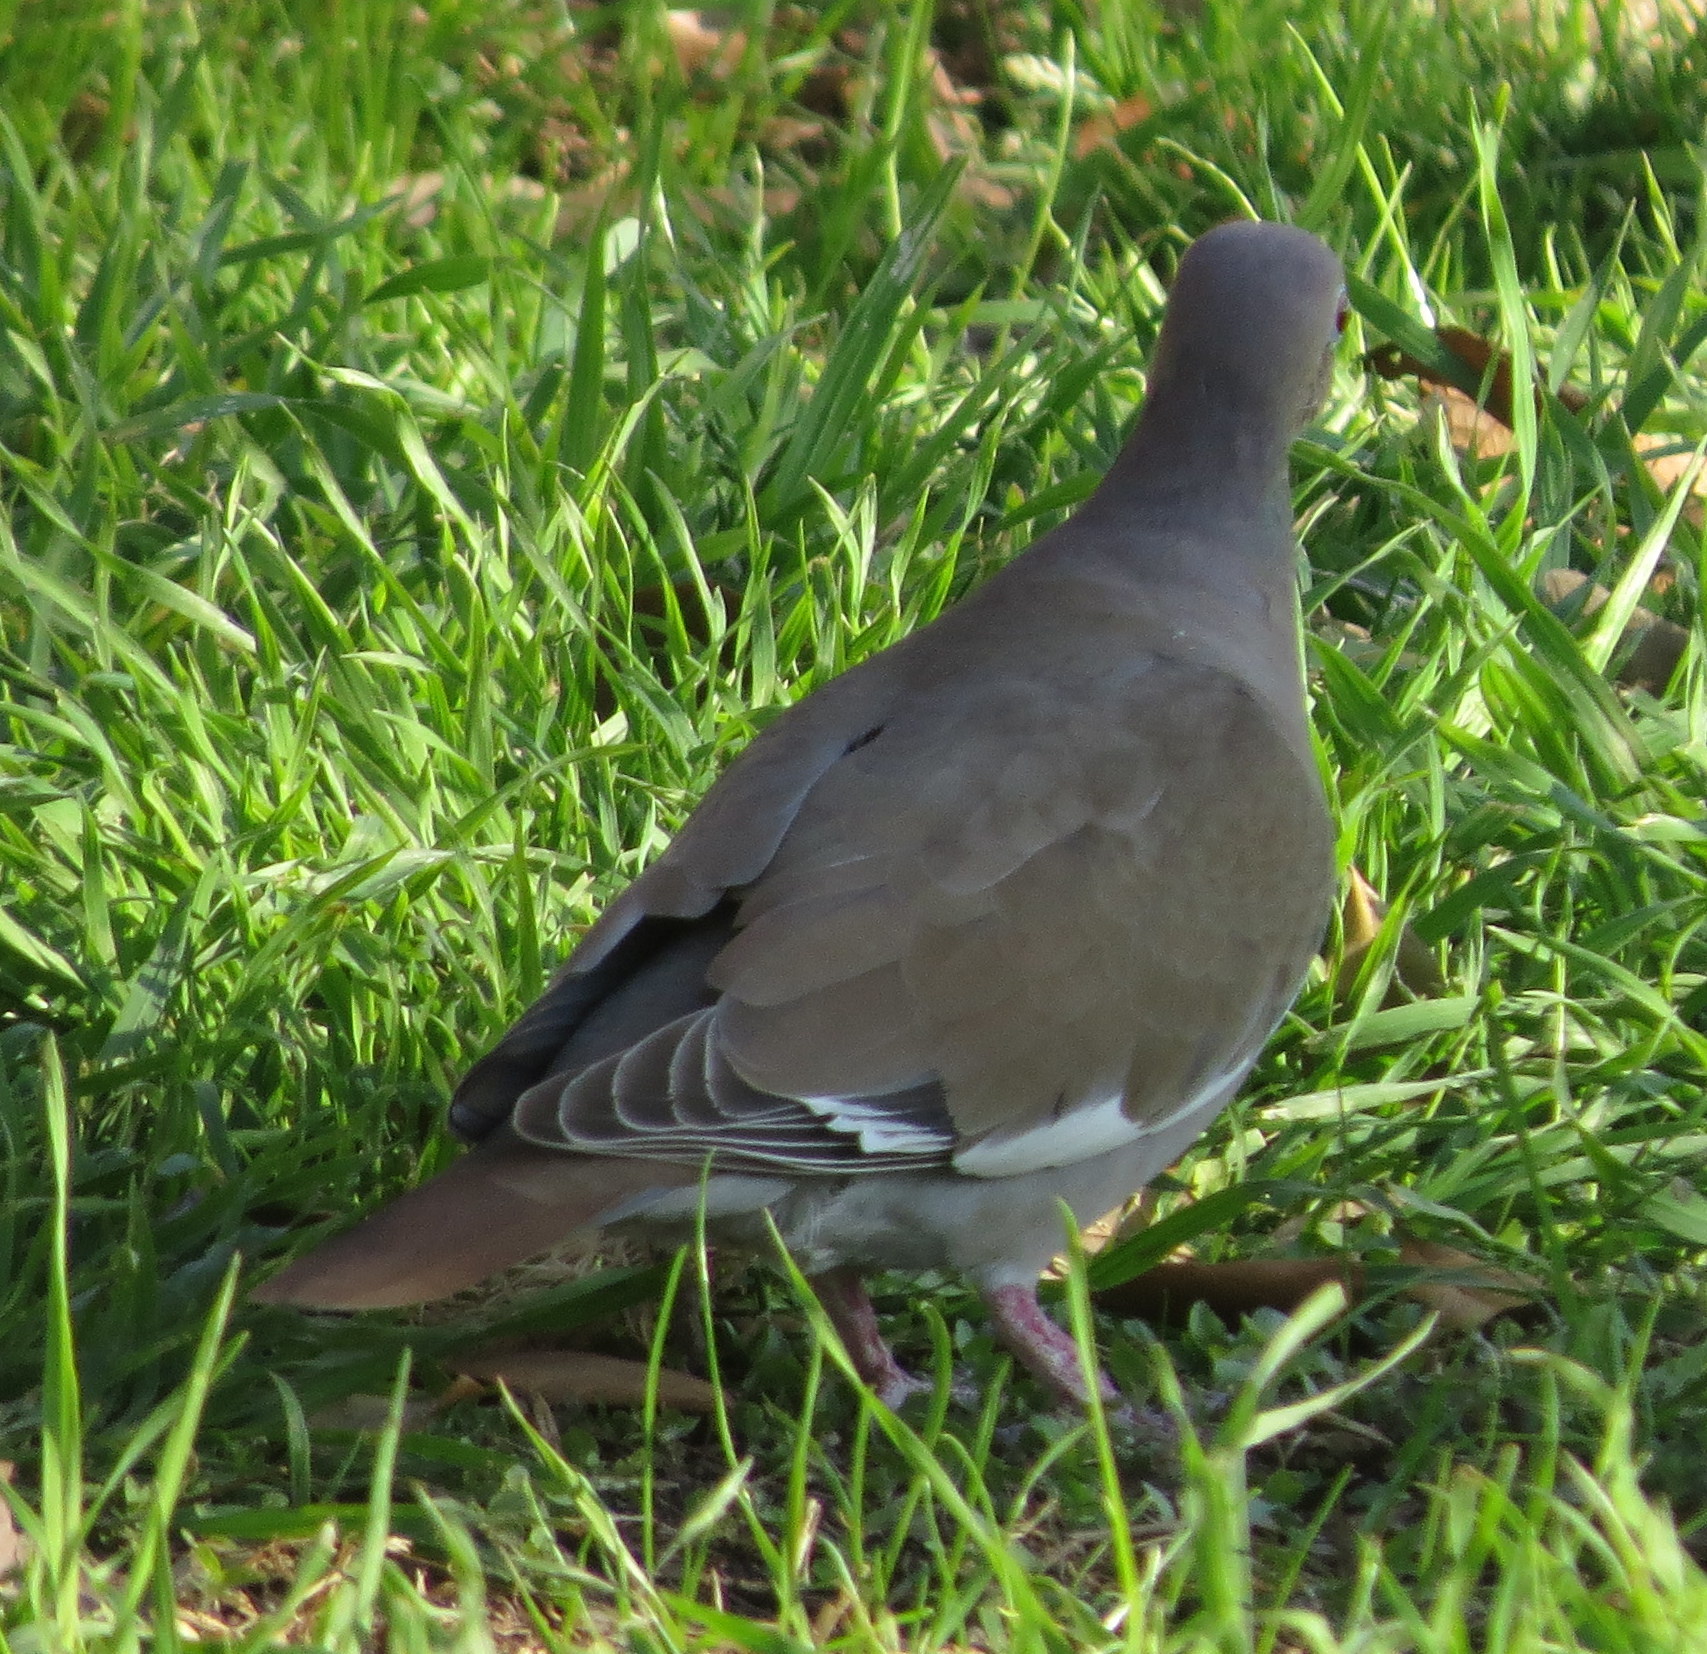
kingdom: Animalia
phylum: Chordata
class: Aves
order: Columbiformes
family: Columbidae
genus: Zenaida
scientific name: Zenaida asiatica
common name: White-winged dove
